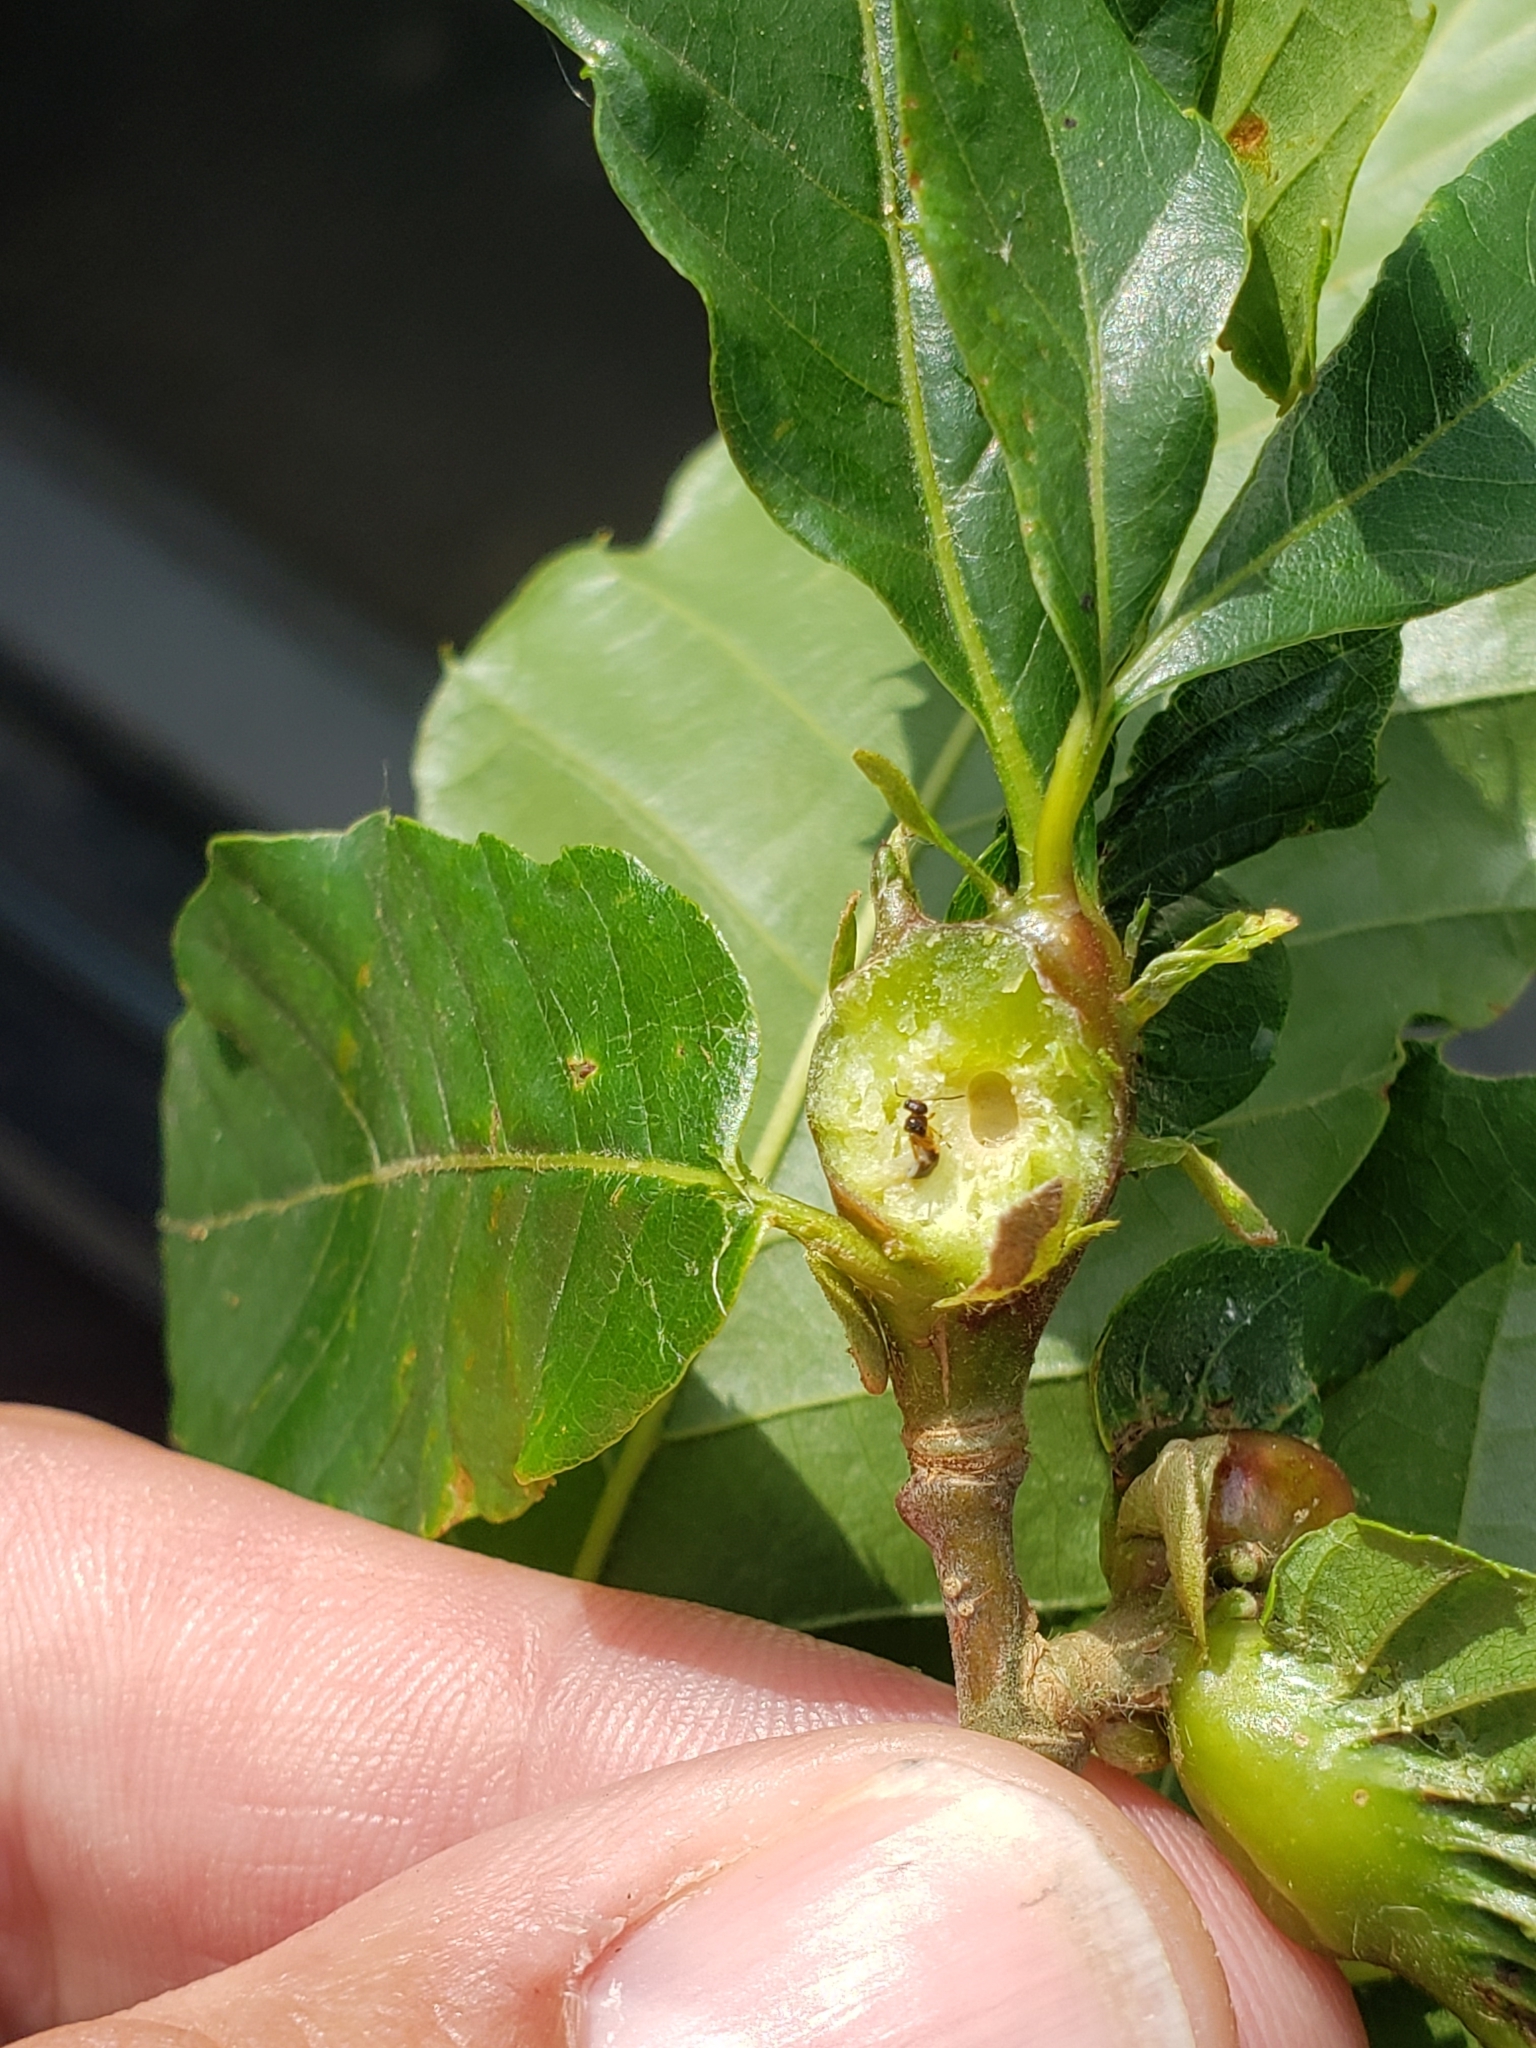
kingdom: Animalia
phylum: Arthropoda
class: Insecta
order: Hymenoptera
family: Cynipidae
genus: Dryocosmus
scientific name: Dryocosmus kuriphilus
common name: Asian chestnut gall wasp
